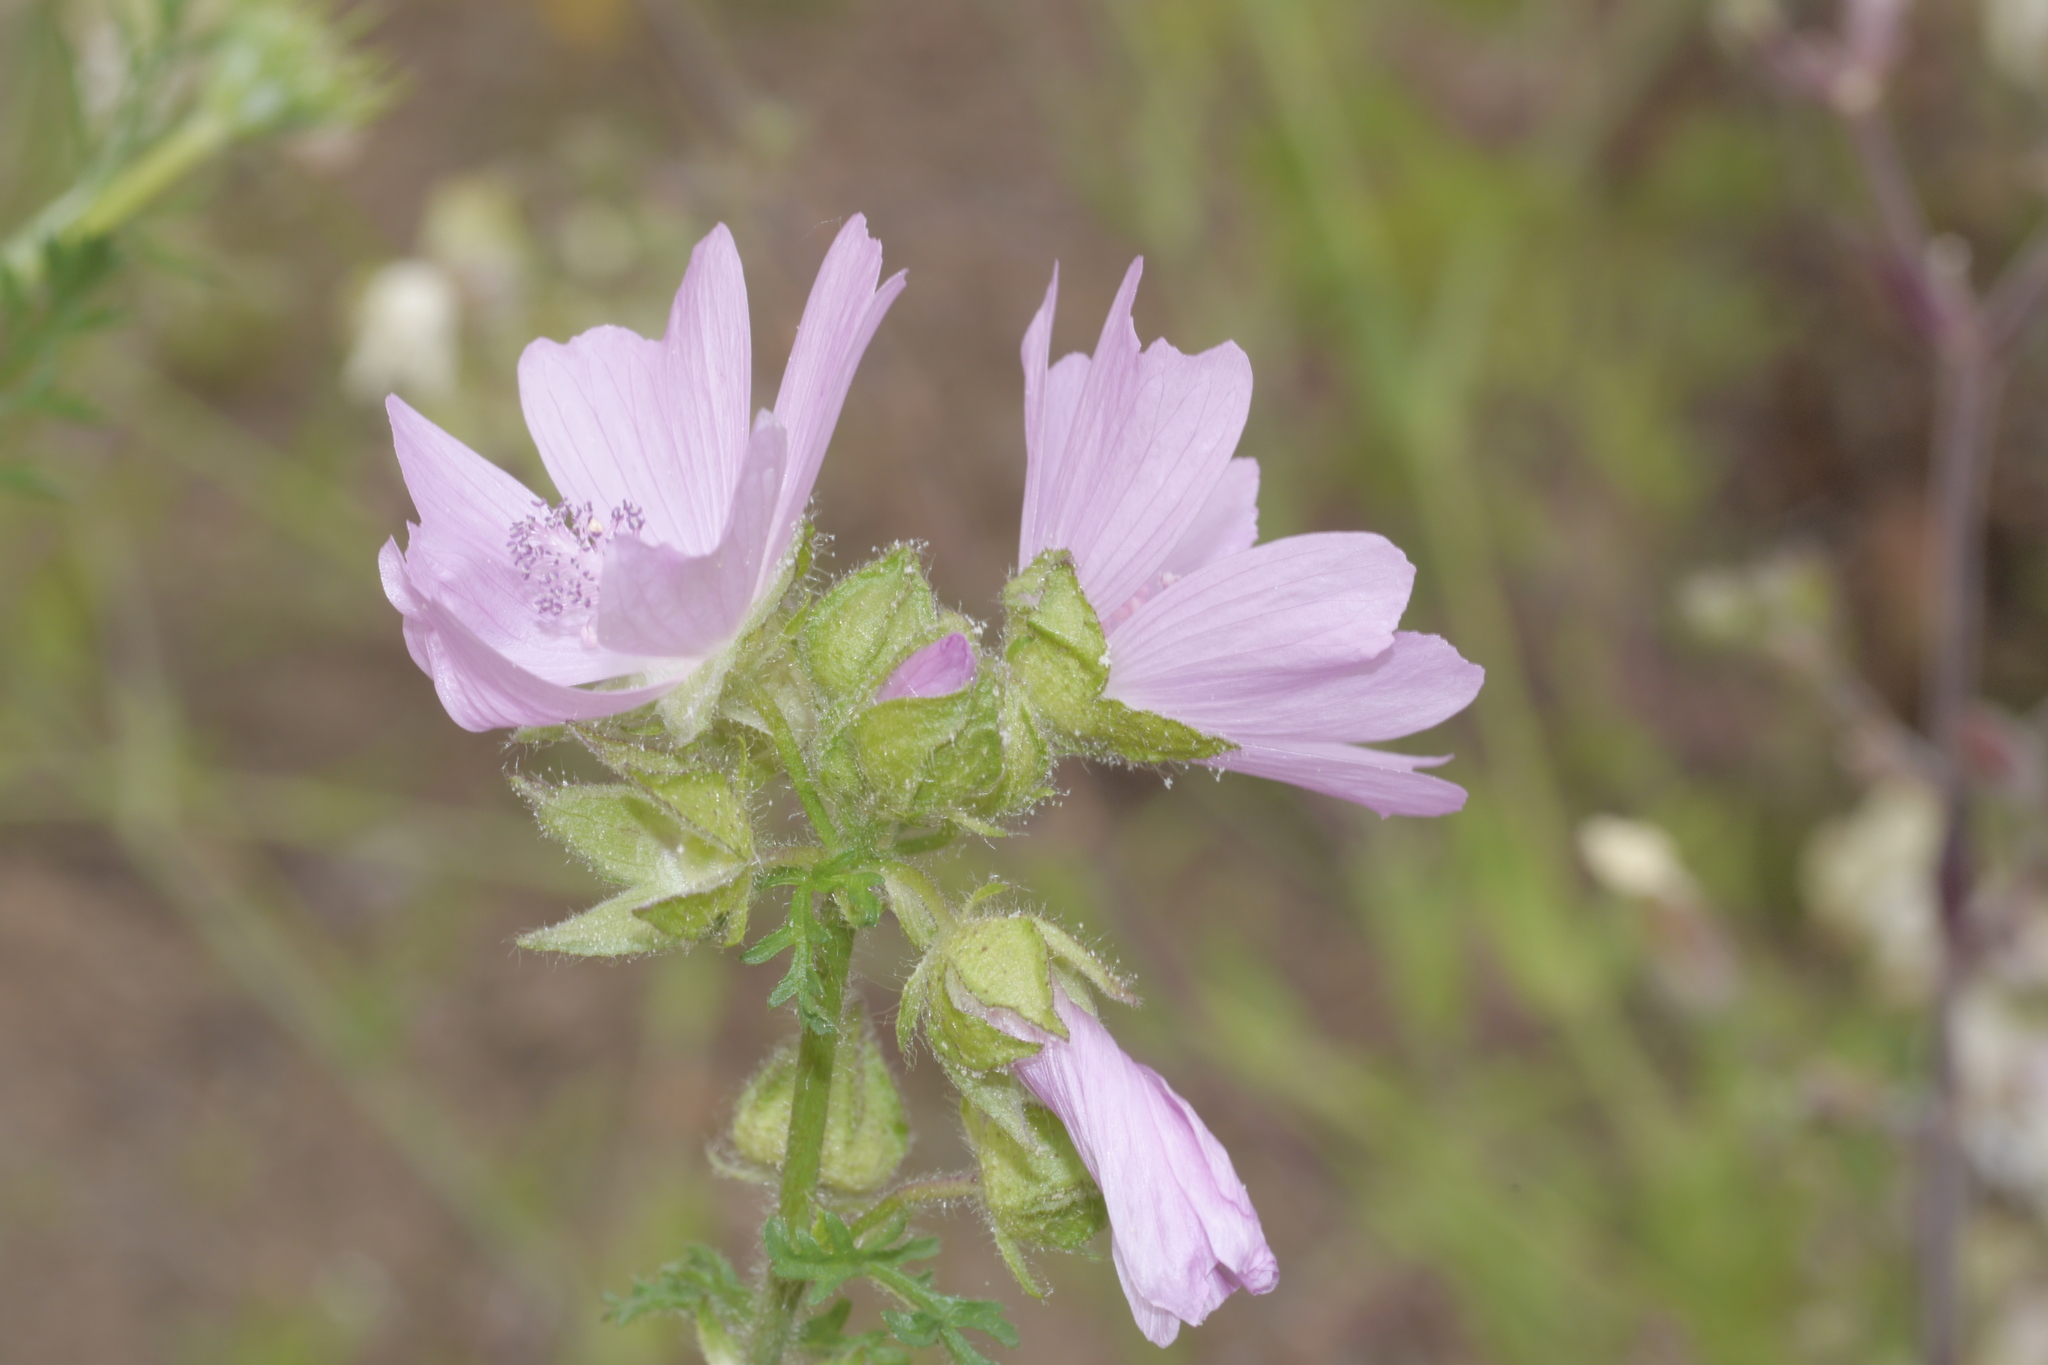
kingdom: Plantae
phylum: Tracheophyta
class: Magnoliopsida
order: Malvales
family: Malvaceae
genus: Malva
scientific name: Malva moschata
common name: Musk mallow
